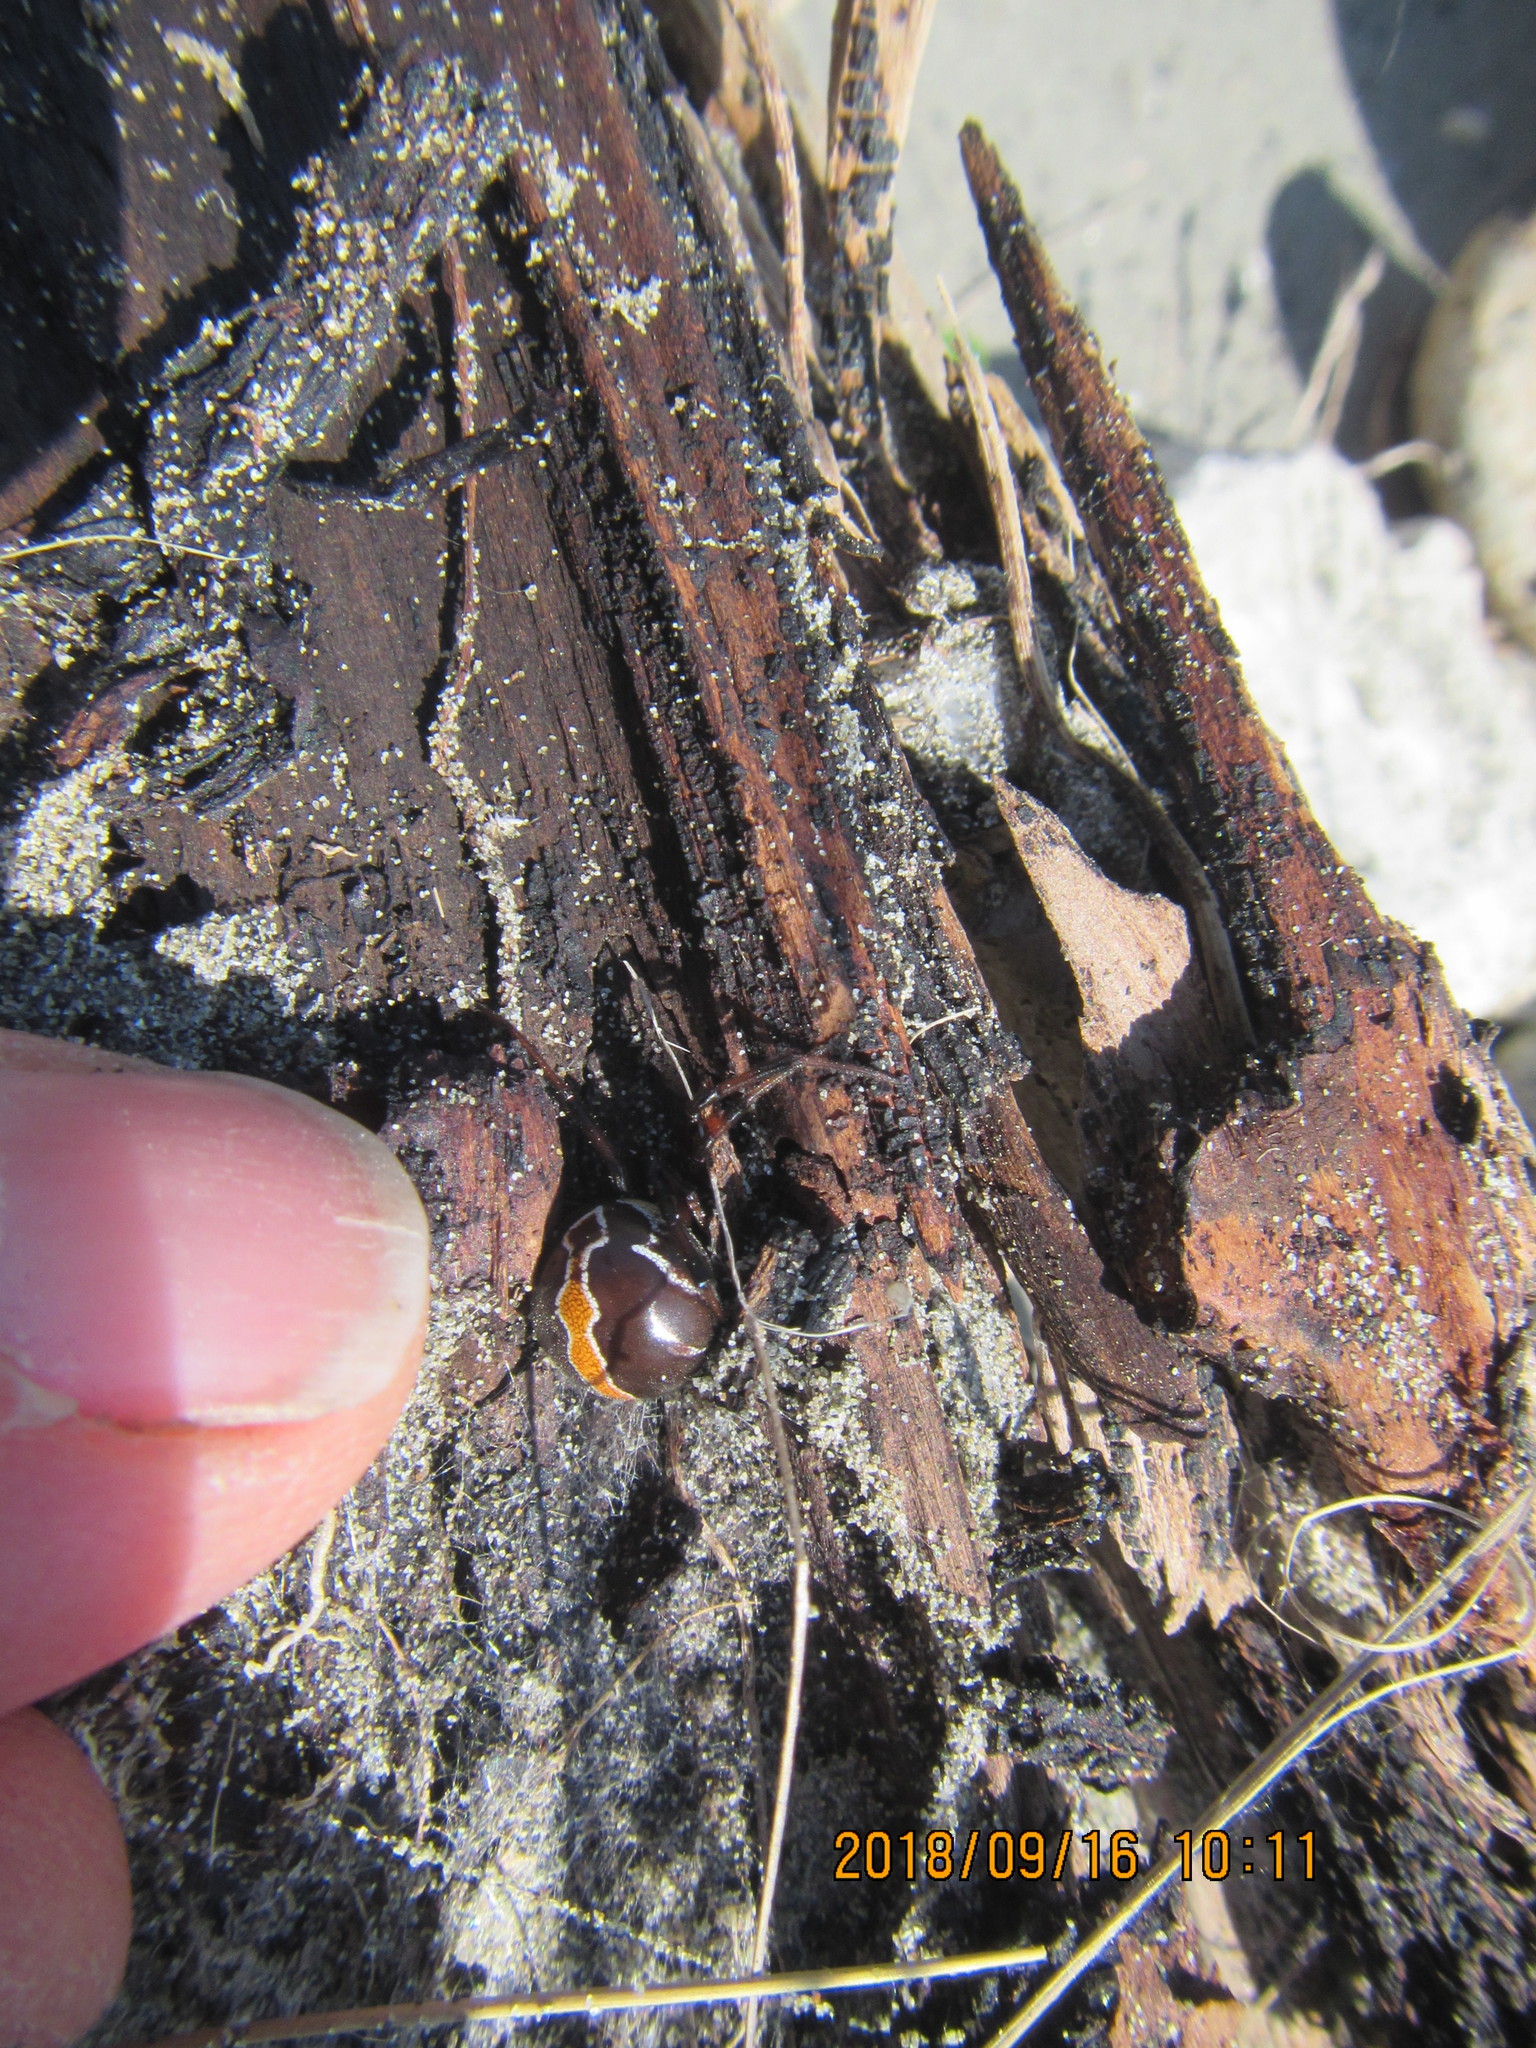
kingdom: Animalia
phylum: Arthropoda
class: Arachnida
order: Araneae
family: Theridiidae
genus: Latrodectus
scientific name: Latrodectus katipo
